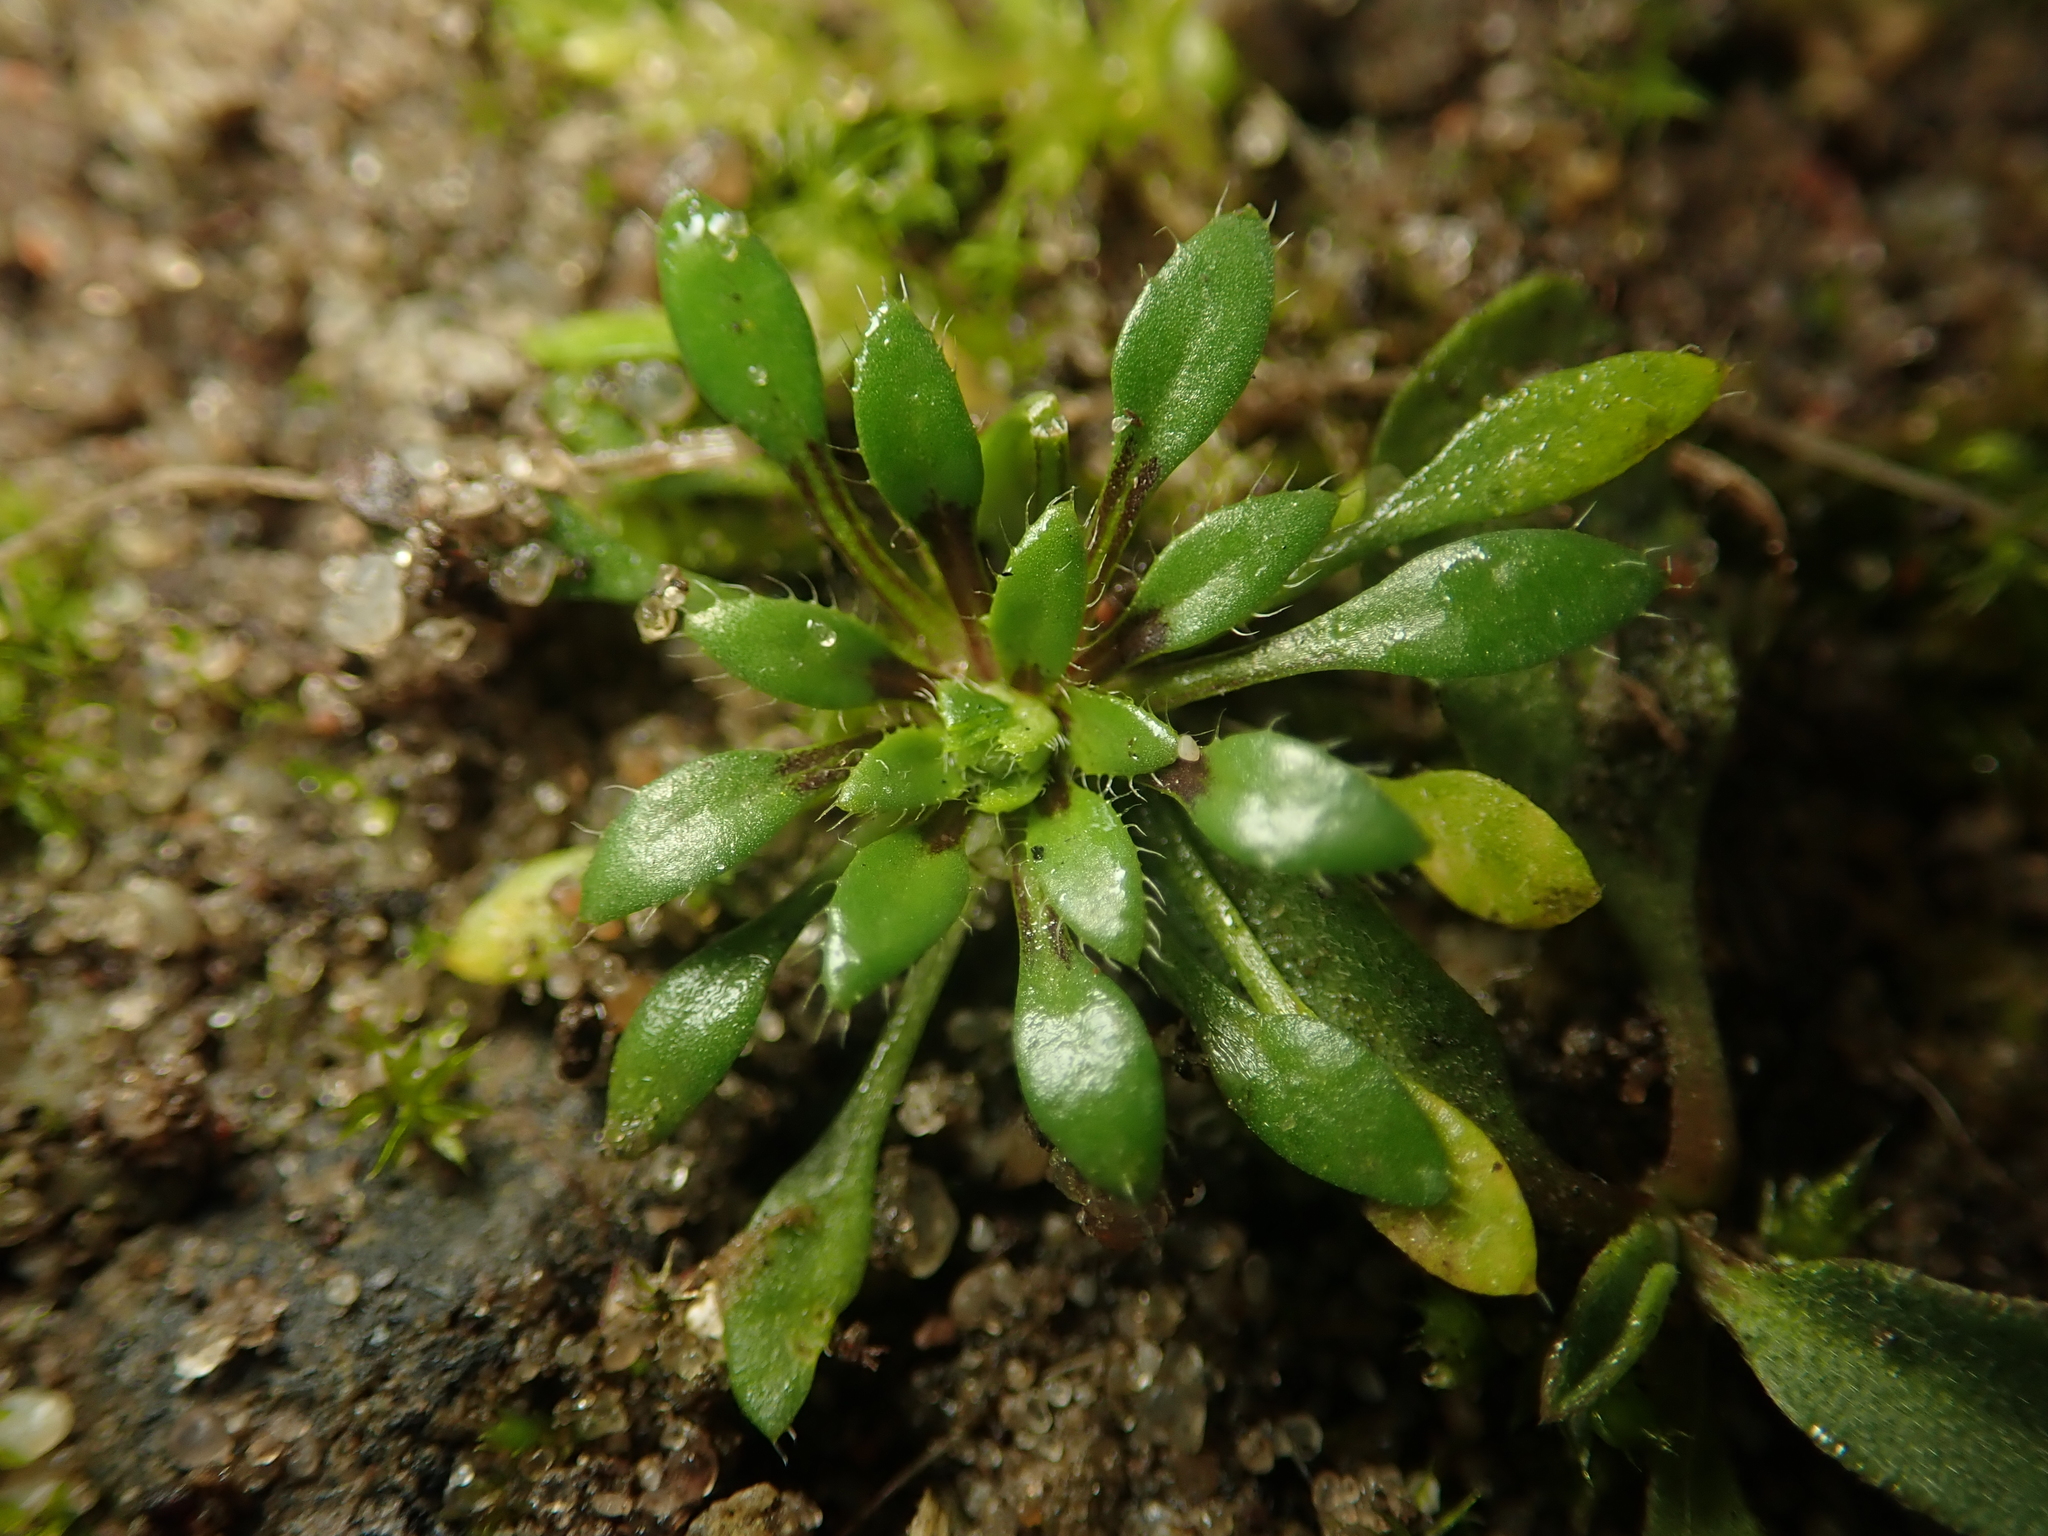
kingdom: Plantae
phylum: Tracheophyta
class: Magnoliopsida
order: Brassicales
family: Brassicaceae
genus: Draba
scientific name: Draba verna
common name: Spring draba
